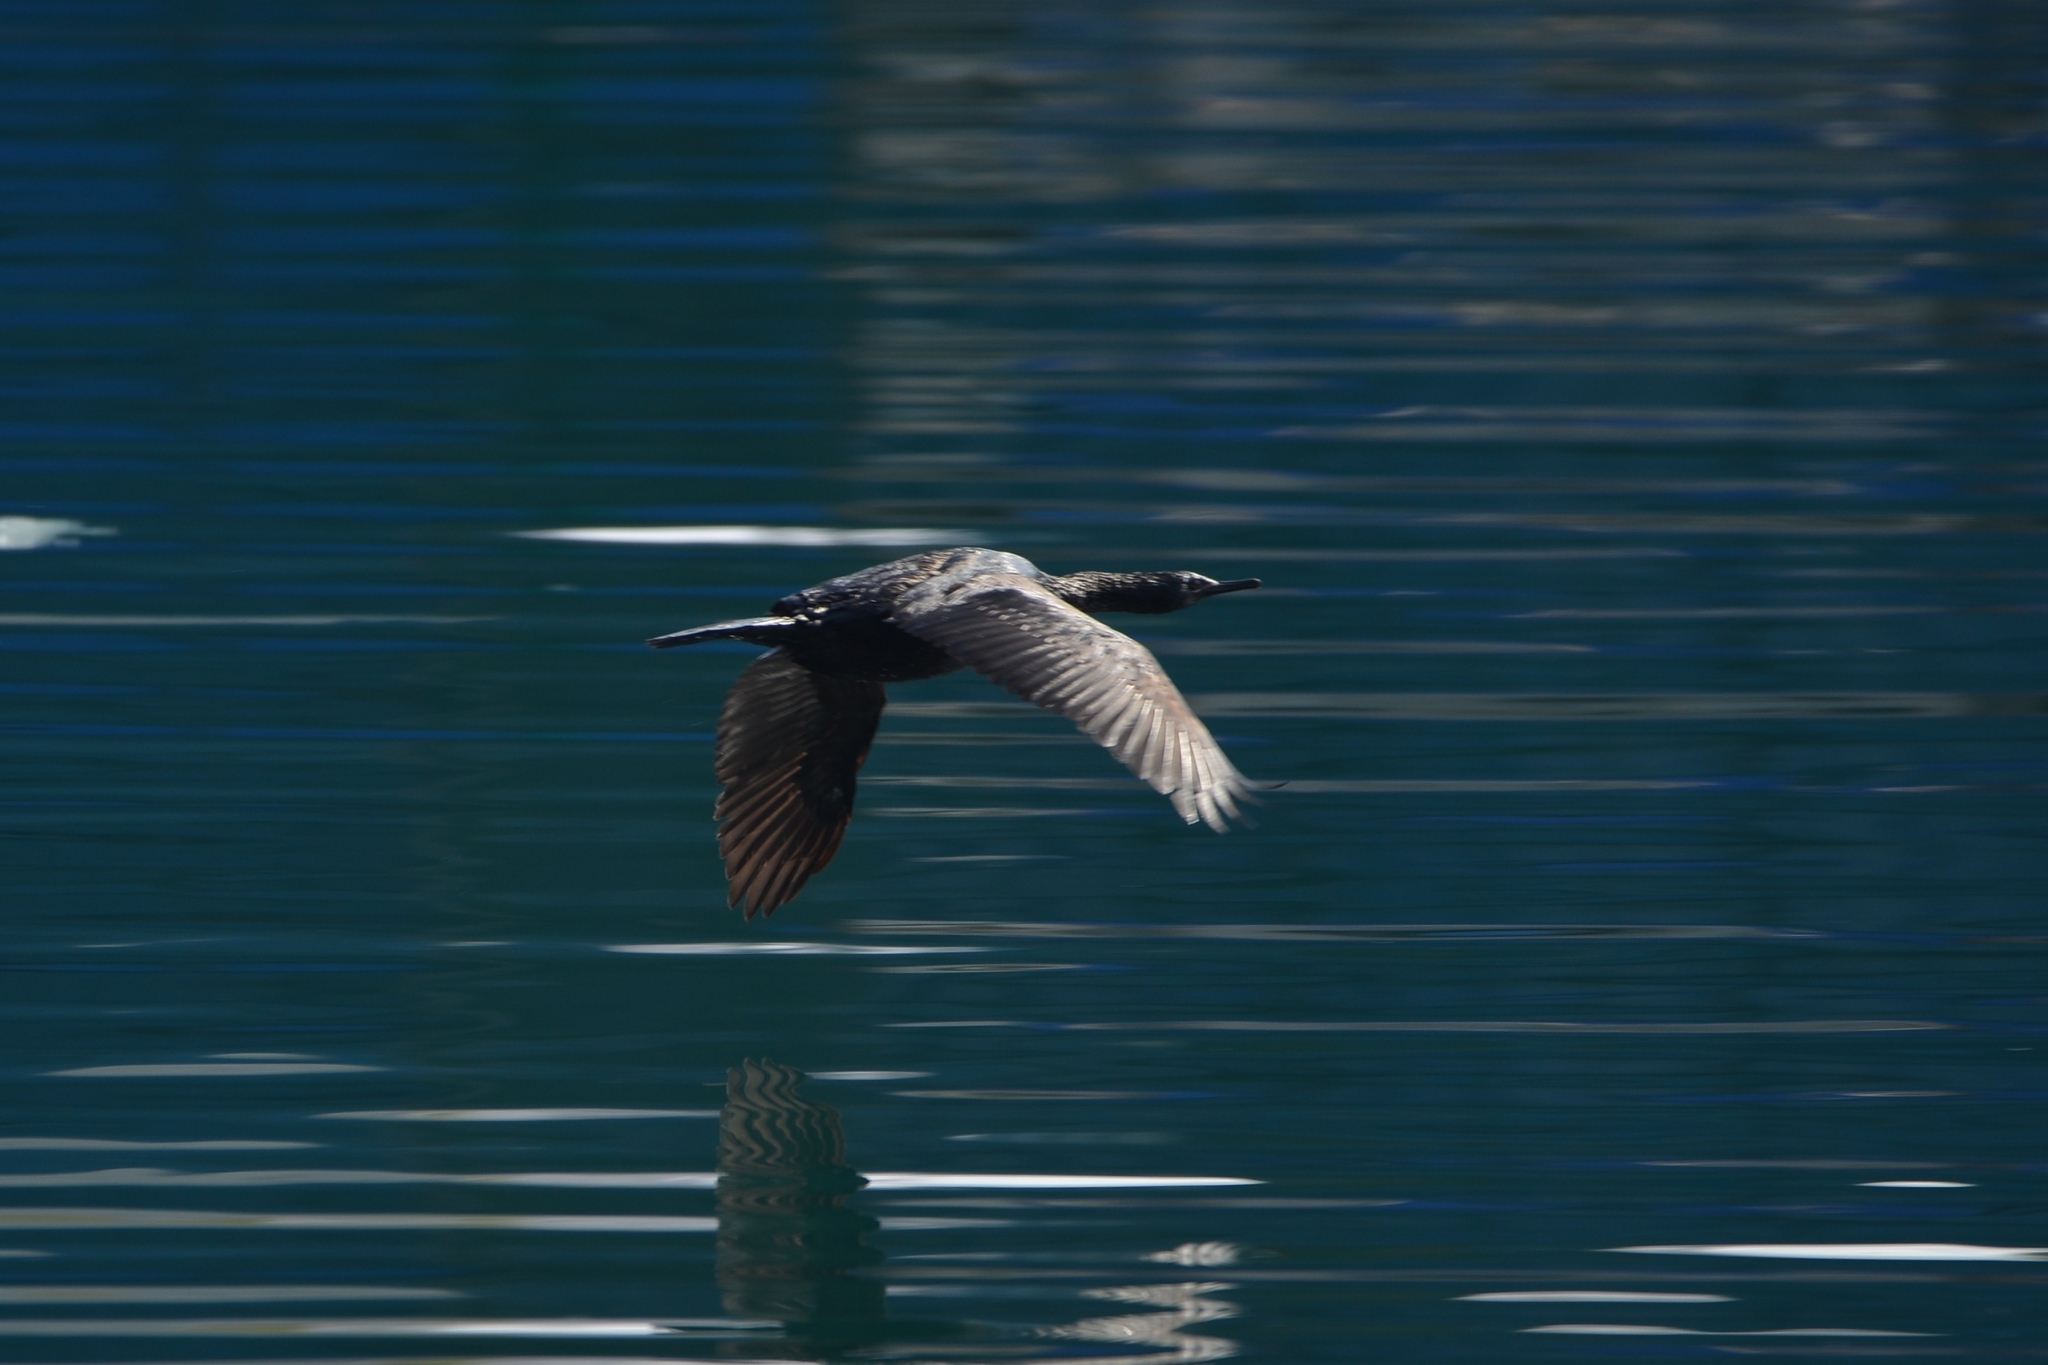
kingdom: Animalia
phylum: Chordata
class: Aves
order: Suliformes
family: Phalacrocoracidae
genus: Phalacrocorax
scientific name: Phalacrocorax pelagicus
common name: Pelagic cormorant
